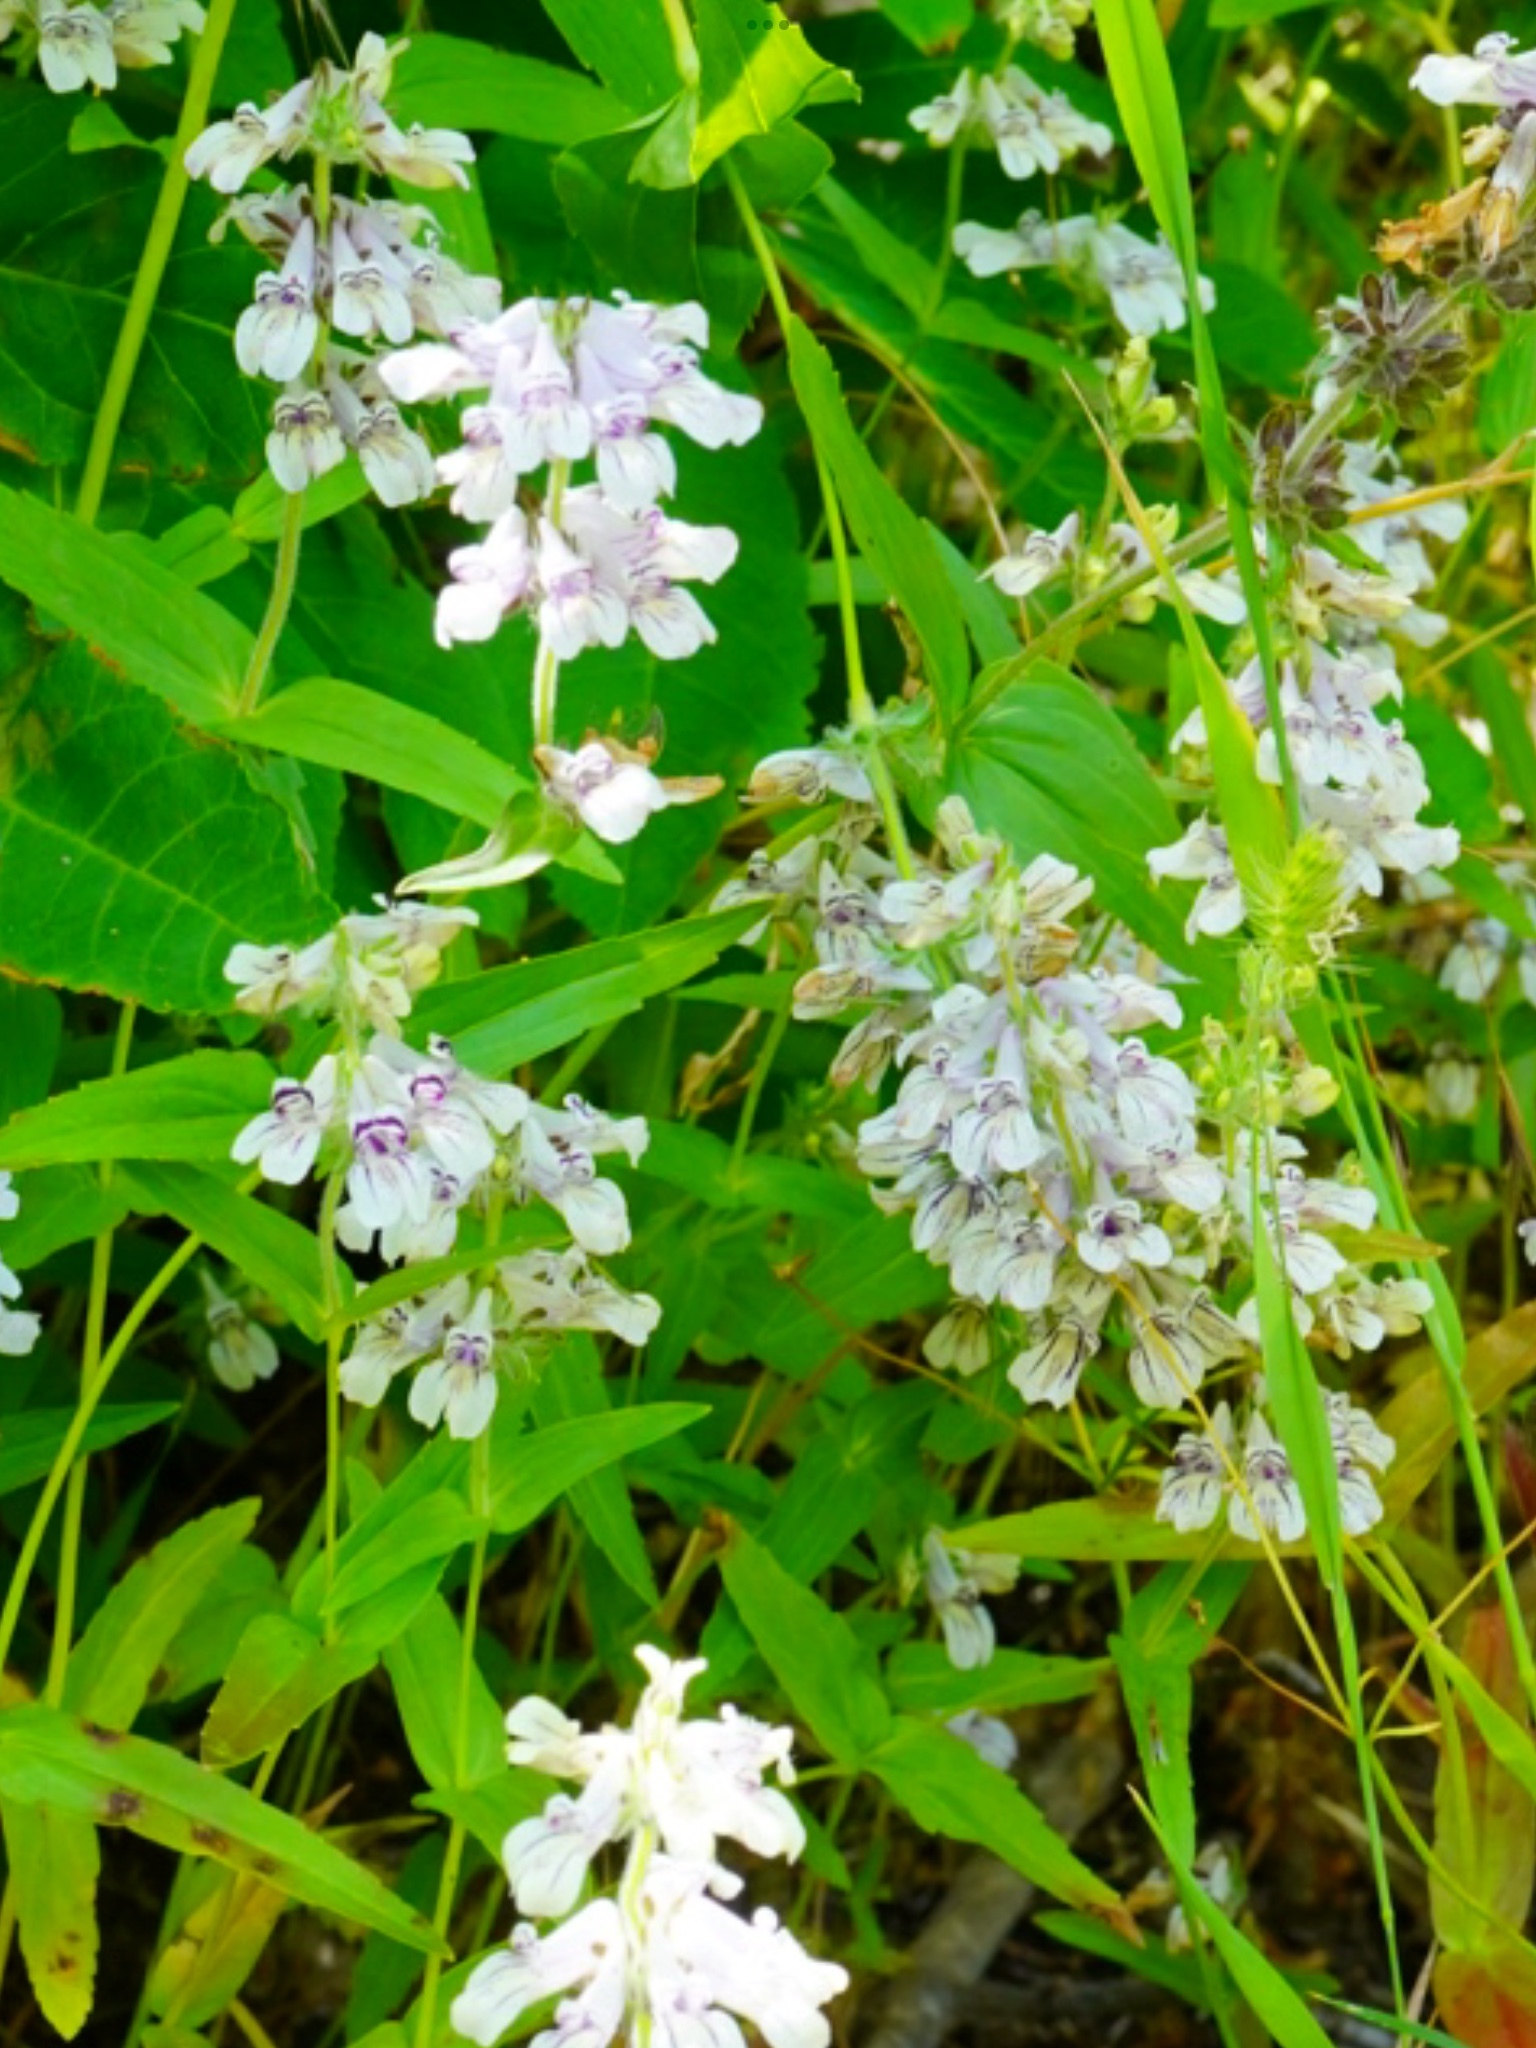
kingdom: Plantae
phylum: Tracheophyta
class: Magnoliopsida
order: Lamiales
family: Plantaginaceae
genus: Collinsia
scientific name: Collinsia tinctoria
